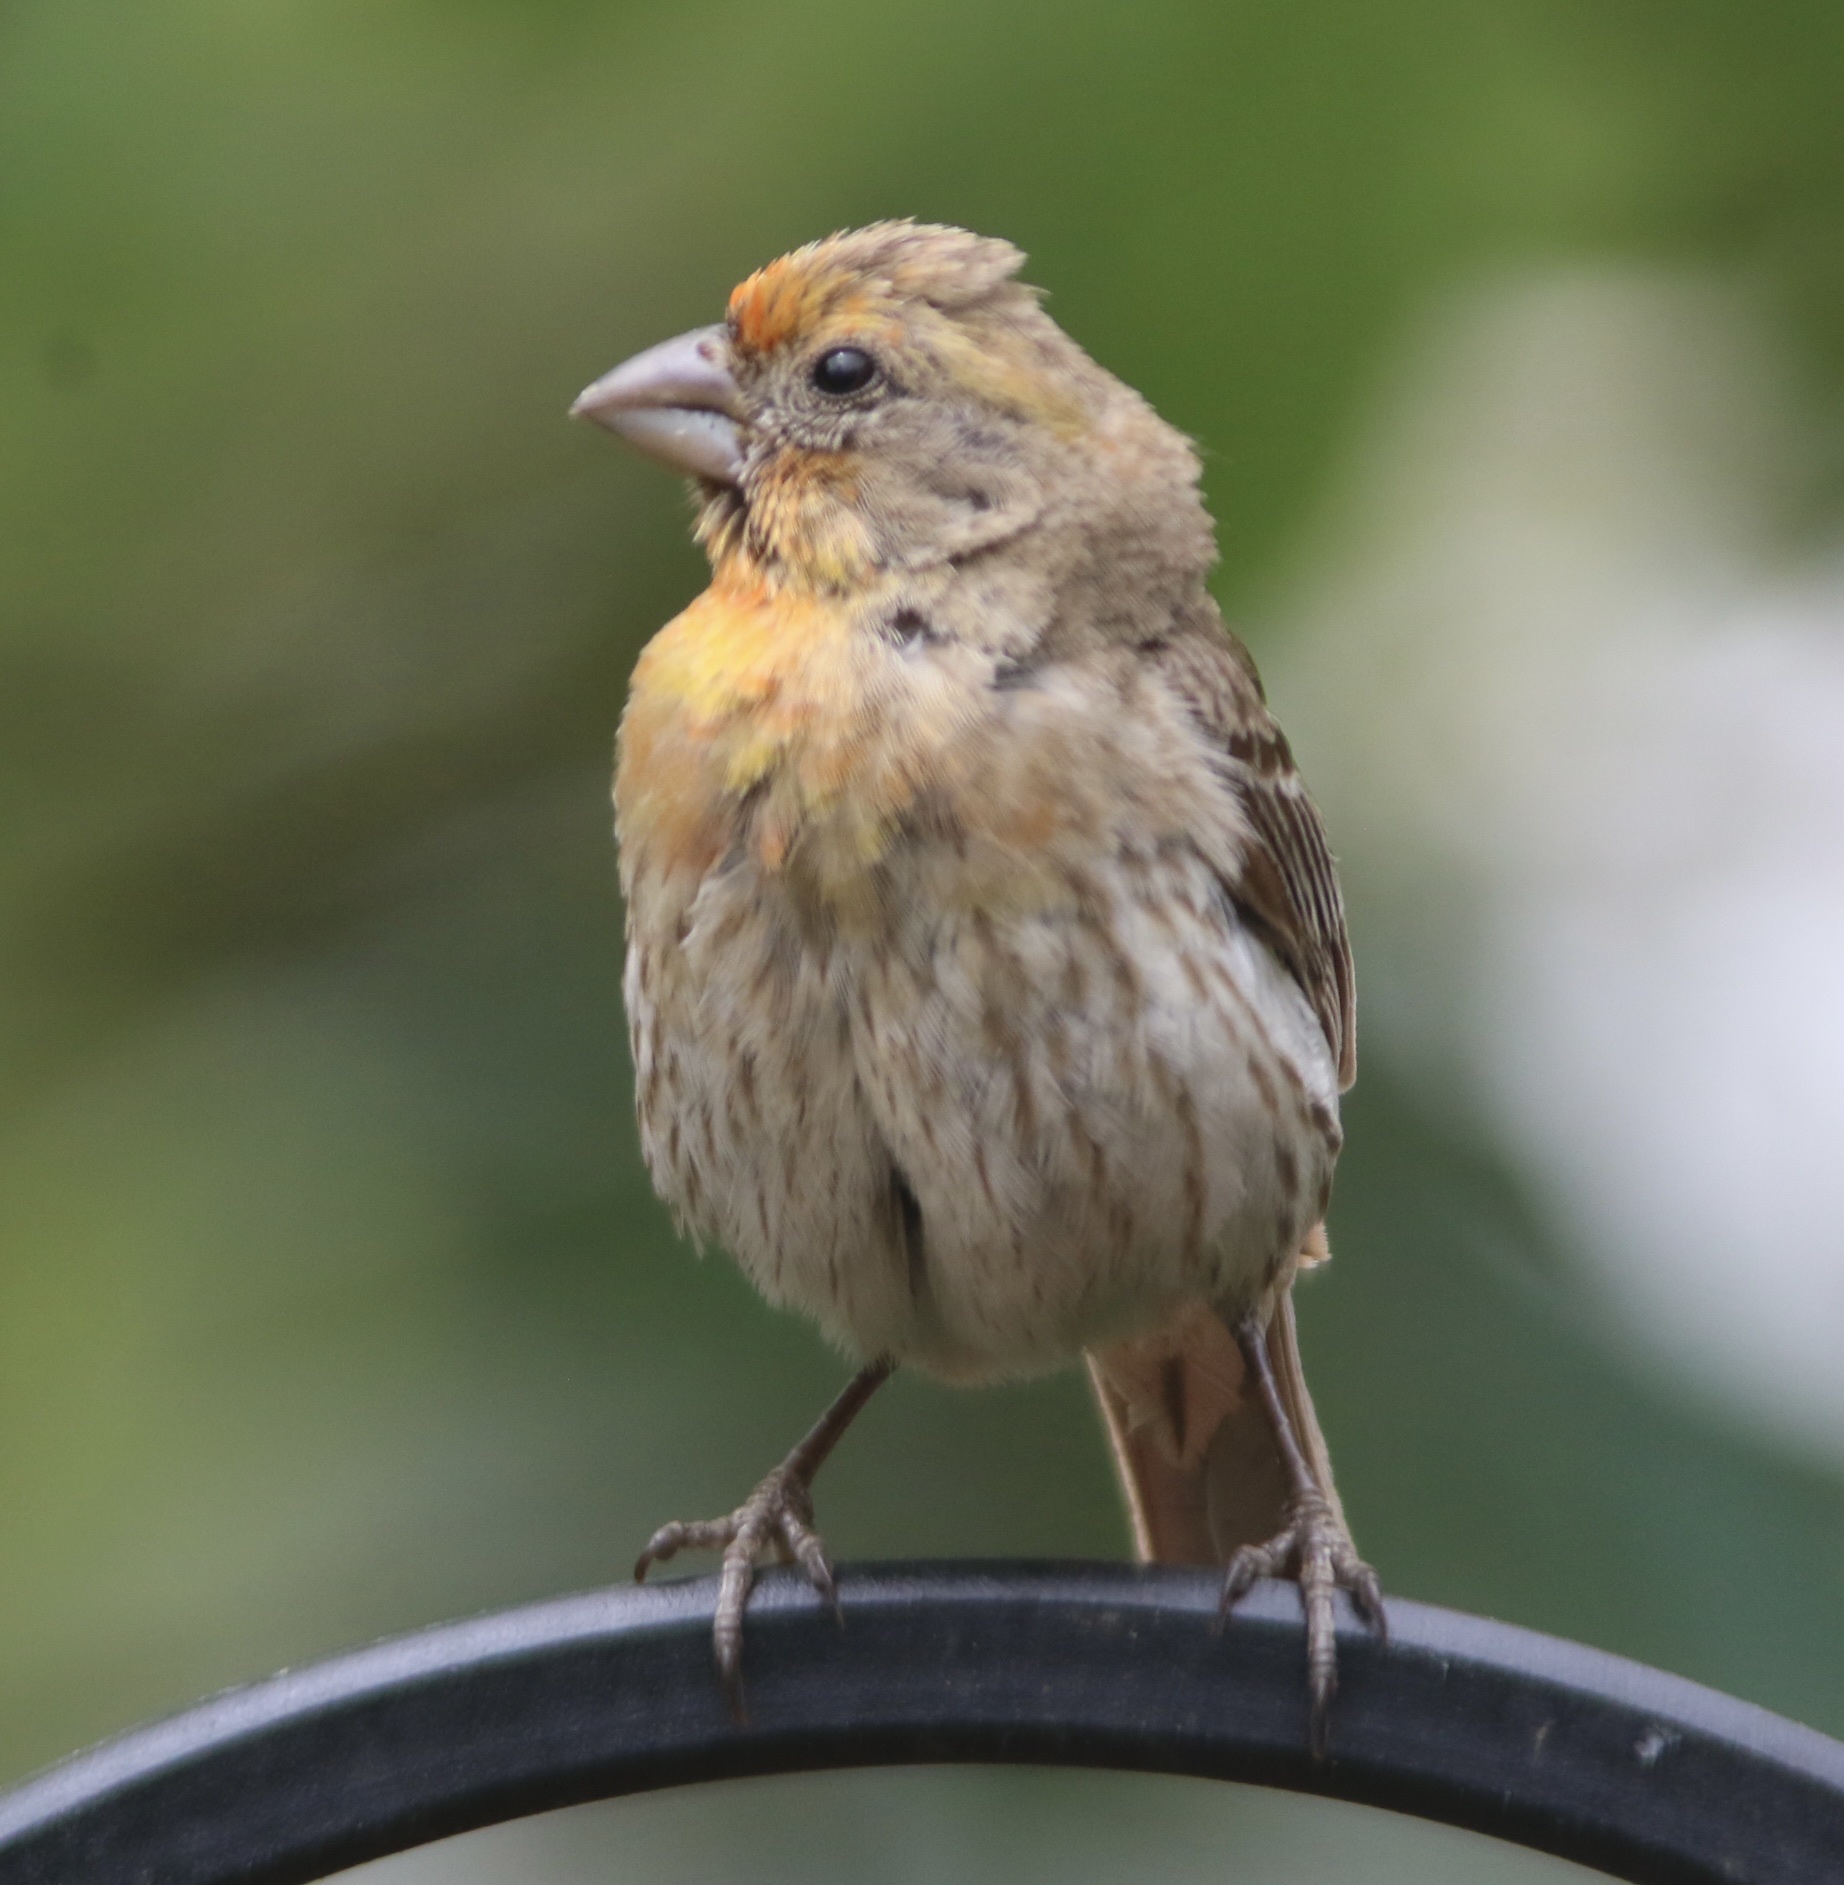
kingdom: Animalia
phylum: Chordata
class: Aves
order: Passeriformes
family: Fringillidae
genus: Haemorhous
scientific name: Haemorhous mexicanus
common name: House finch
